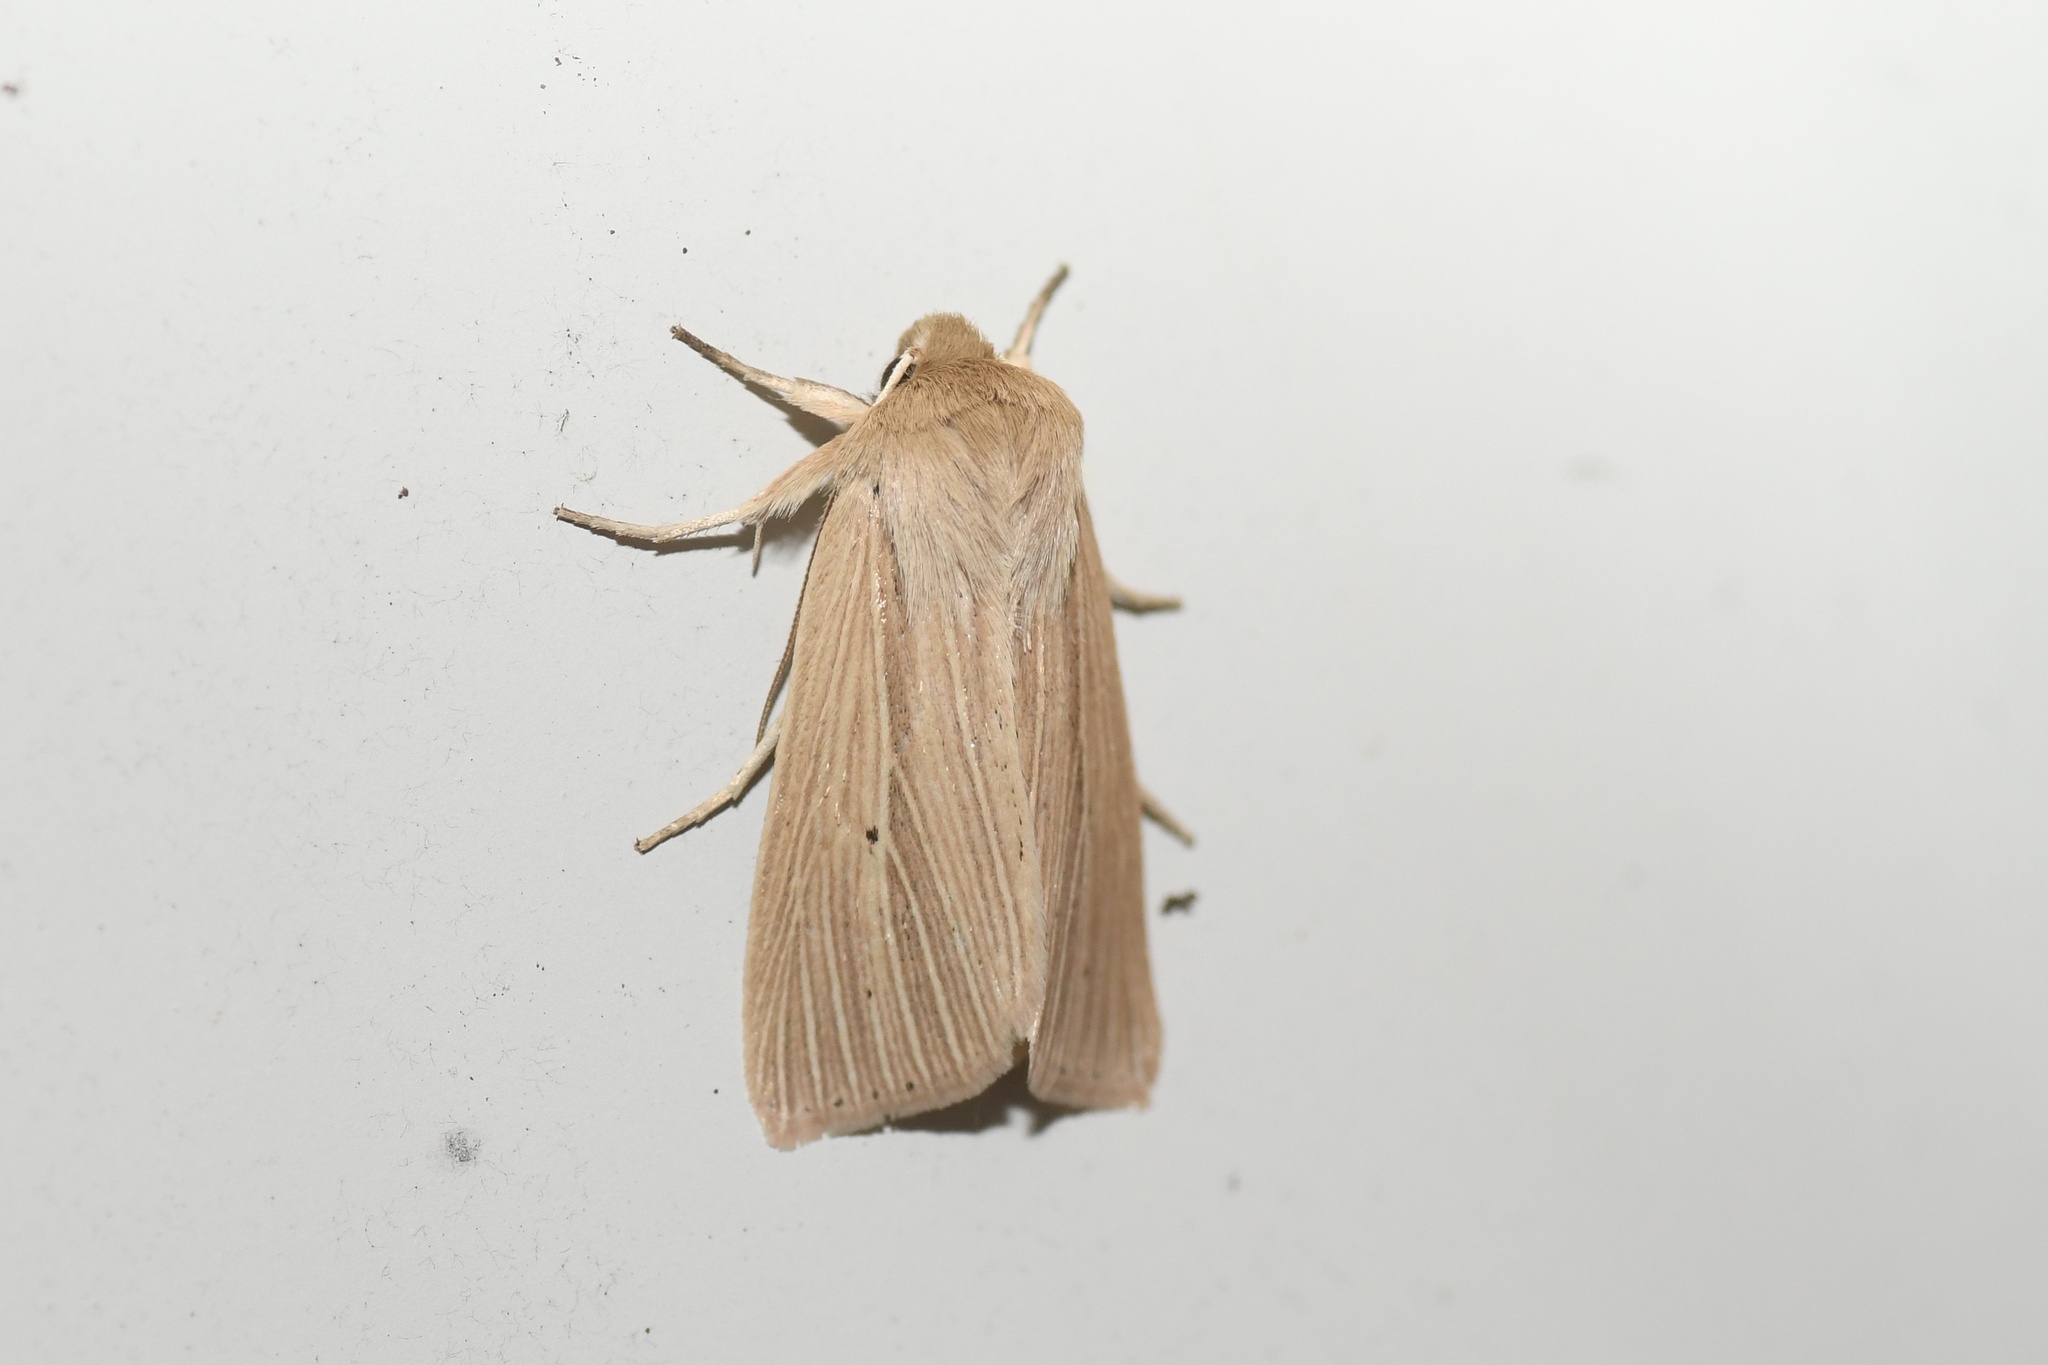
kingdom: Animalia
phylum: Arthropoda
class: Insecta
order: Lepidoptera
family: Noctuidae
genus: Mythimna
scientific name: Mythimna oxygala
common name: Lesser wainscot
